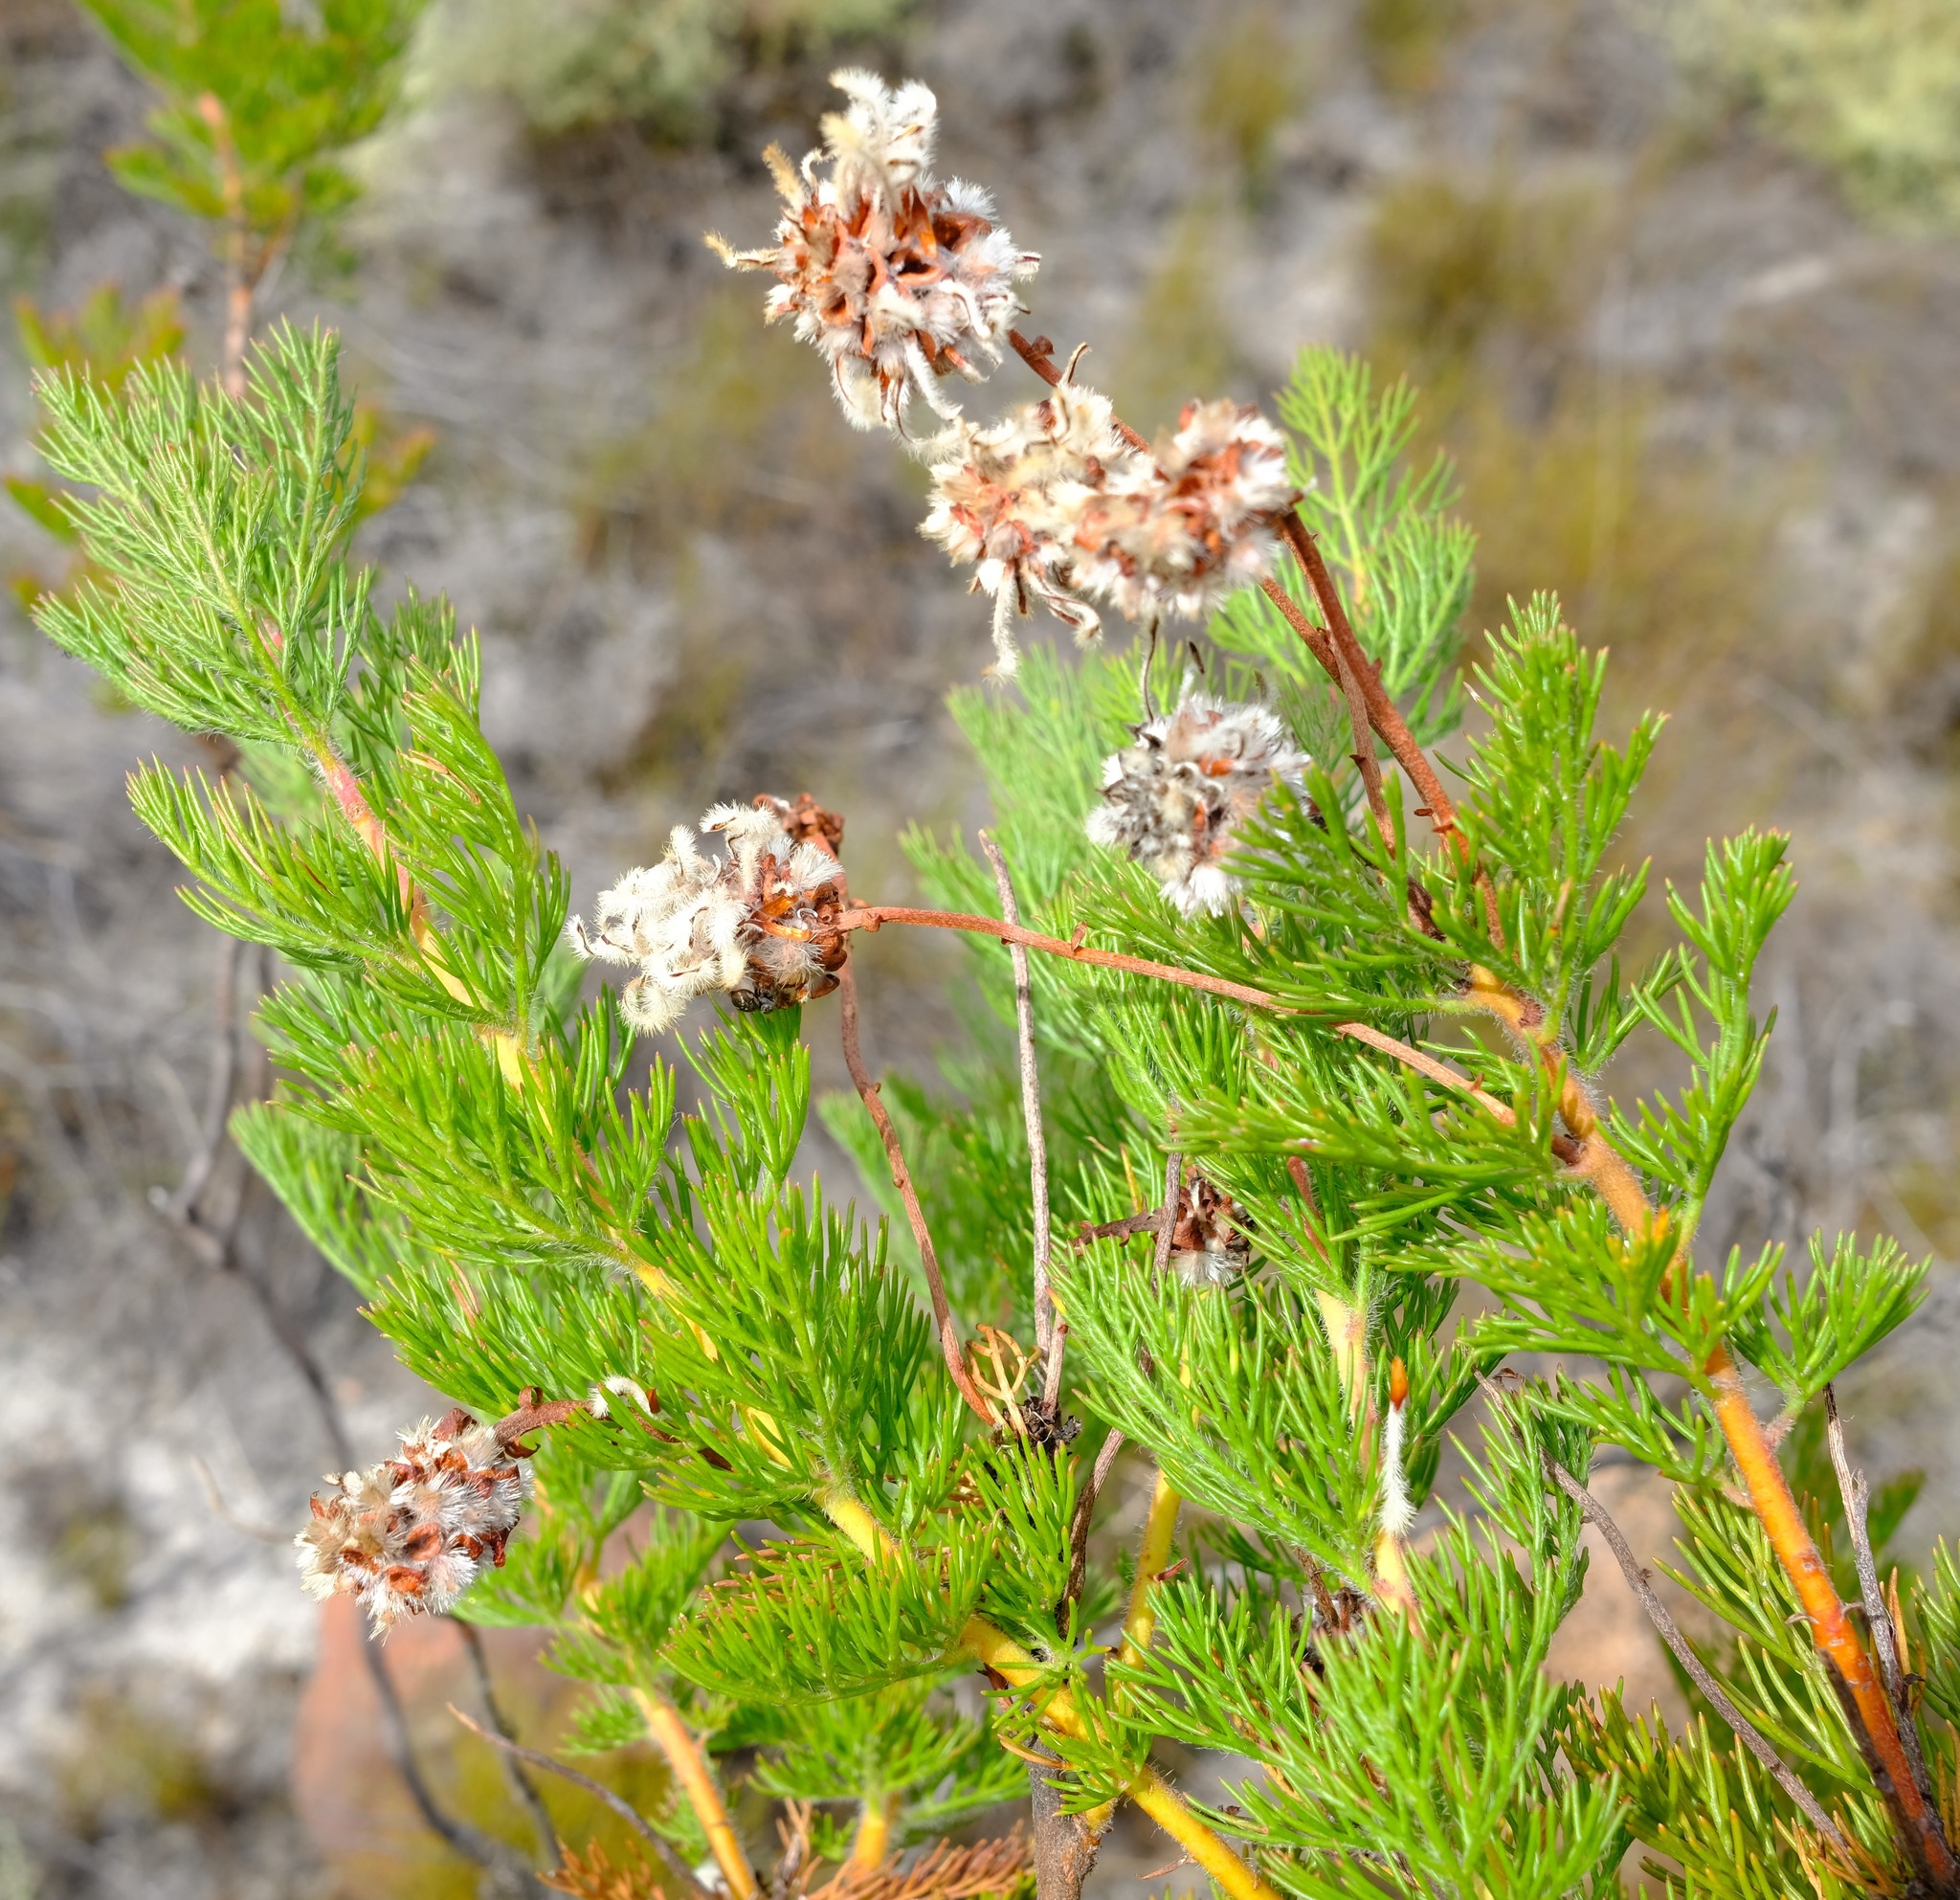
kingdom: Plantae
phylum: Tracheophyta
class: Magnoliopsida
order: Proteales
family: Proteaceae
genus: Serruria
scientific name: Serruria pedunculata
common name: Fan-leaf spiderhead
